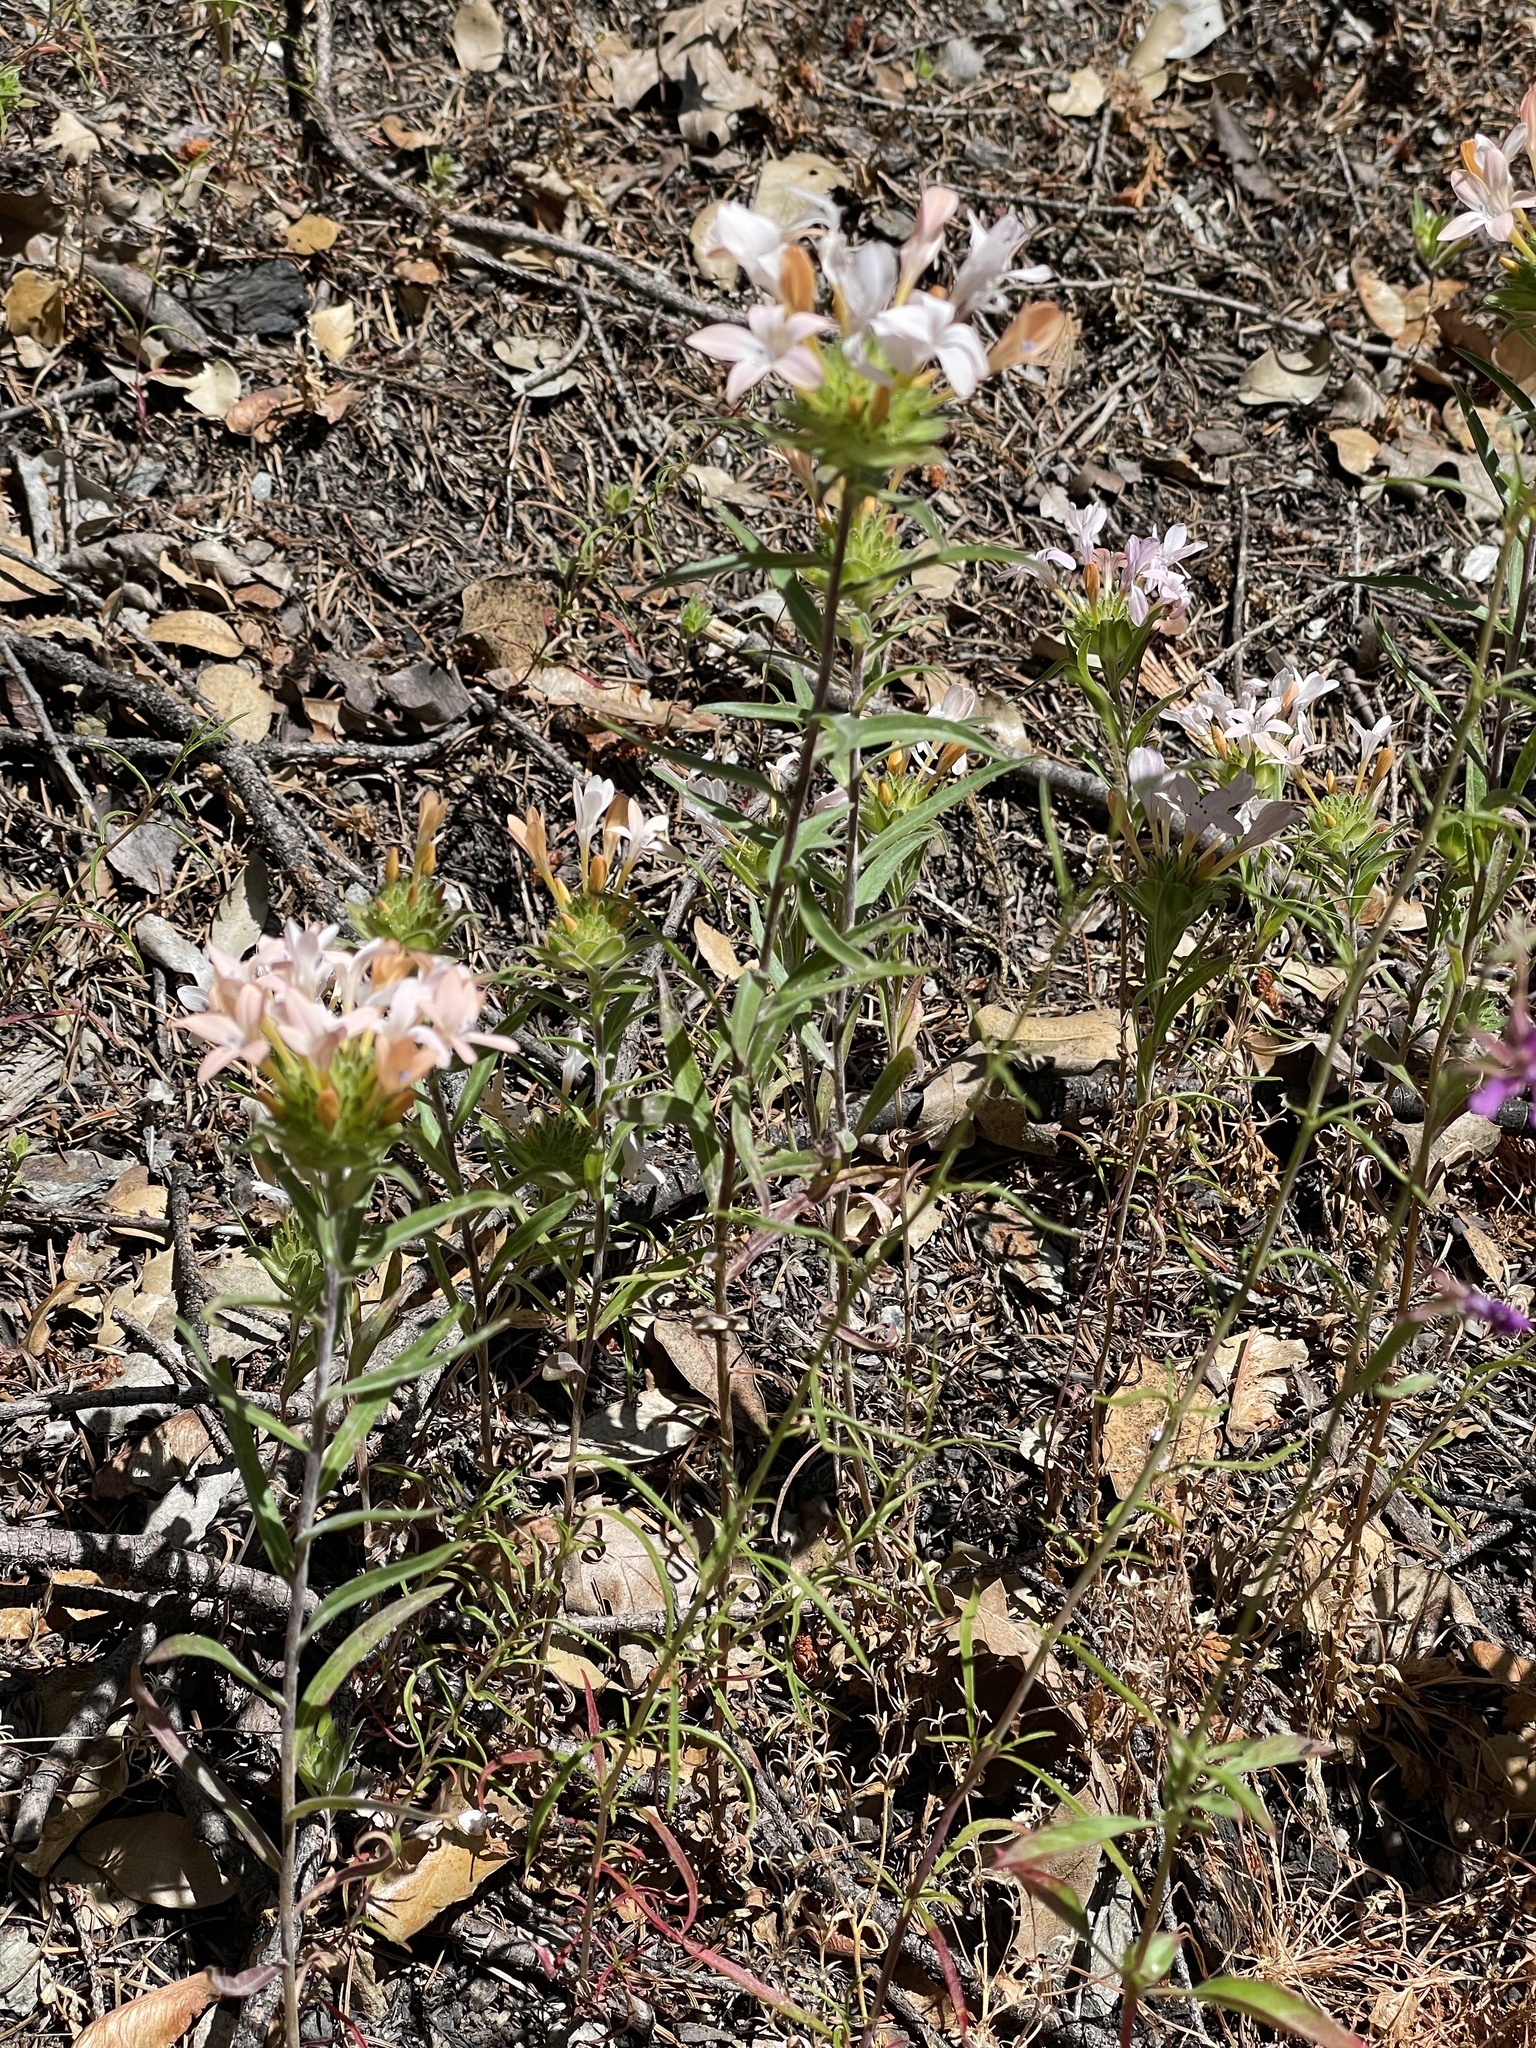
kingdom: Plantae
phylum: Tracheophyta
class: Magnoliopsida
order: Ericales
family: Polemoniaceae
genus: Collomia
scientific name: Collomia grandiflora
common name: California strawflower
